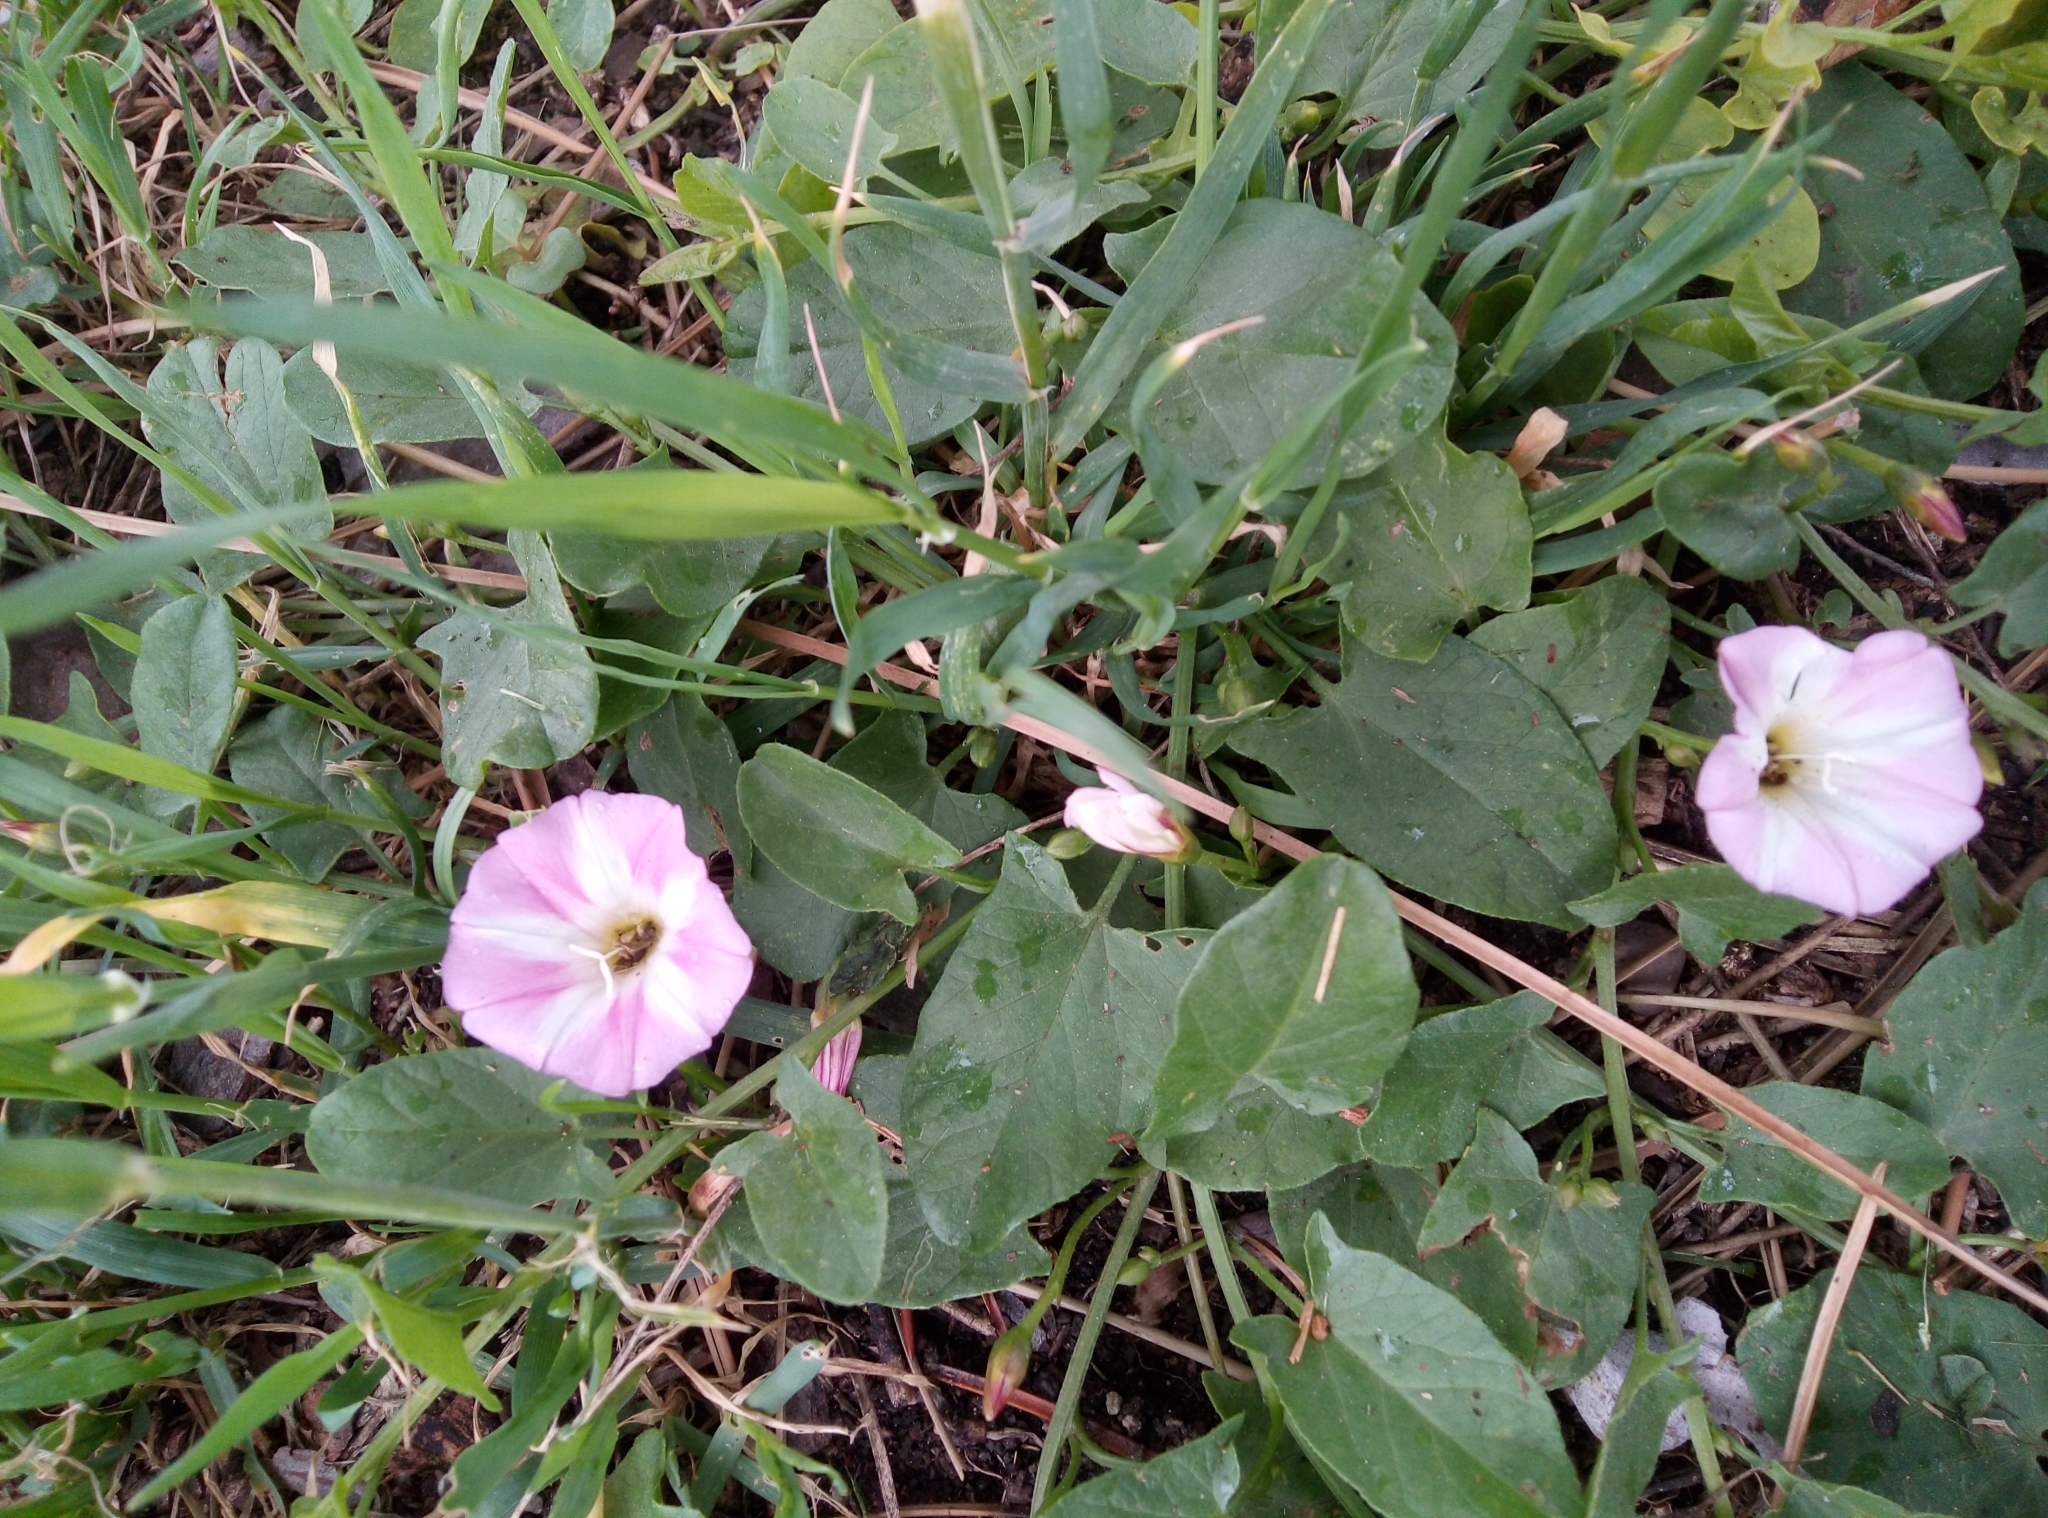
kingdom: Plantae
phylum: Tracheophyta
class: Magnoliopsida
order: Solanales
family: Convolvulaceae
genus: Convolvulus
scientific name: Convolvulus arvensis
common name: Field bindweed
